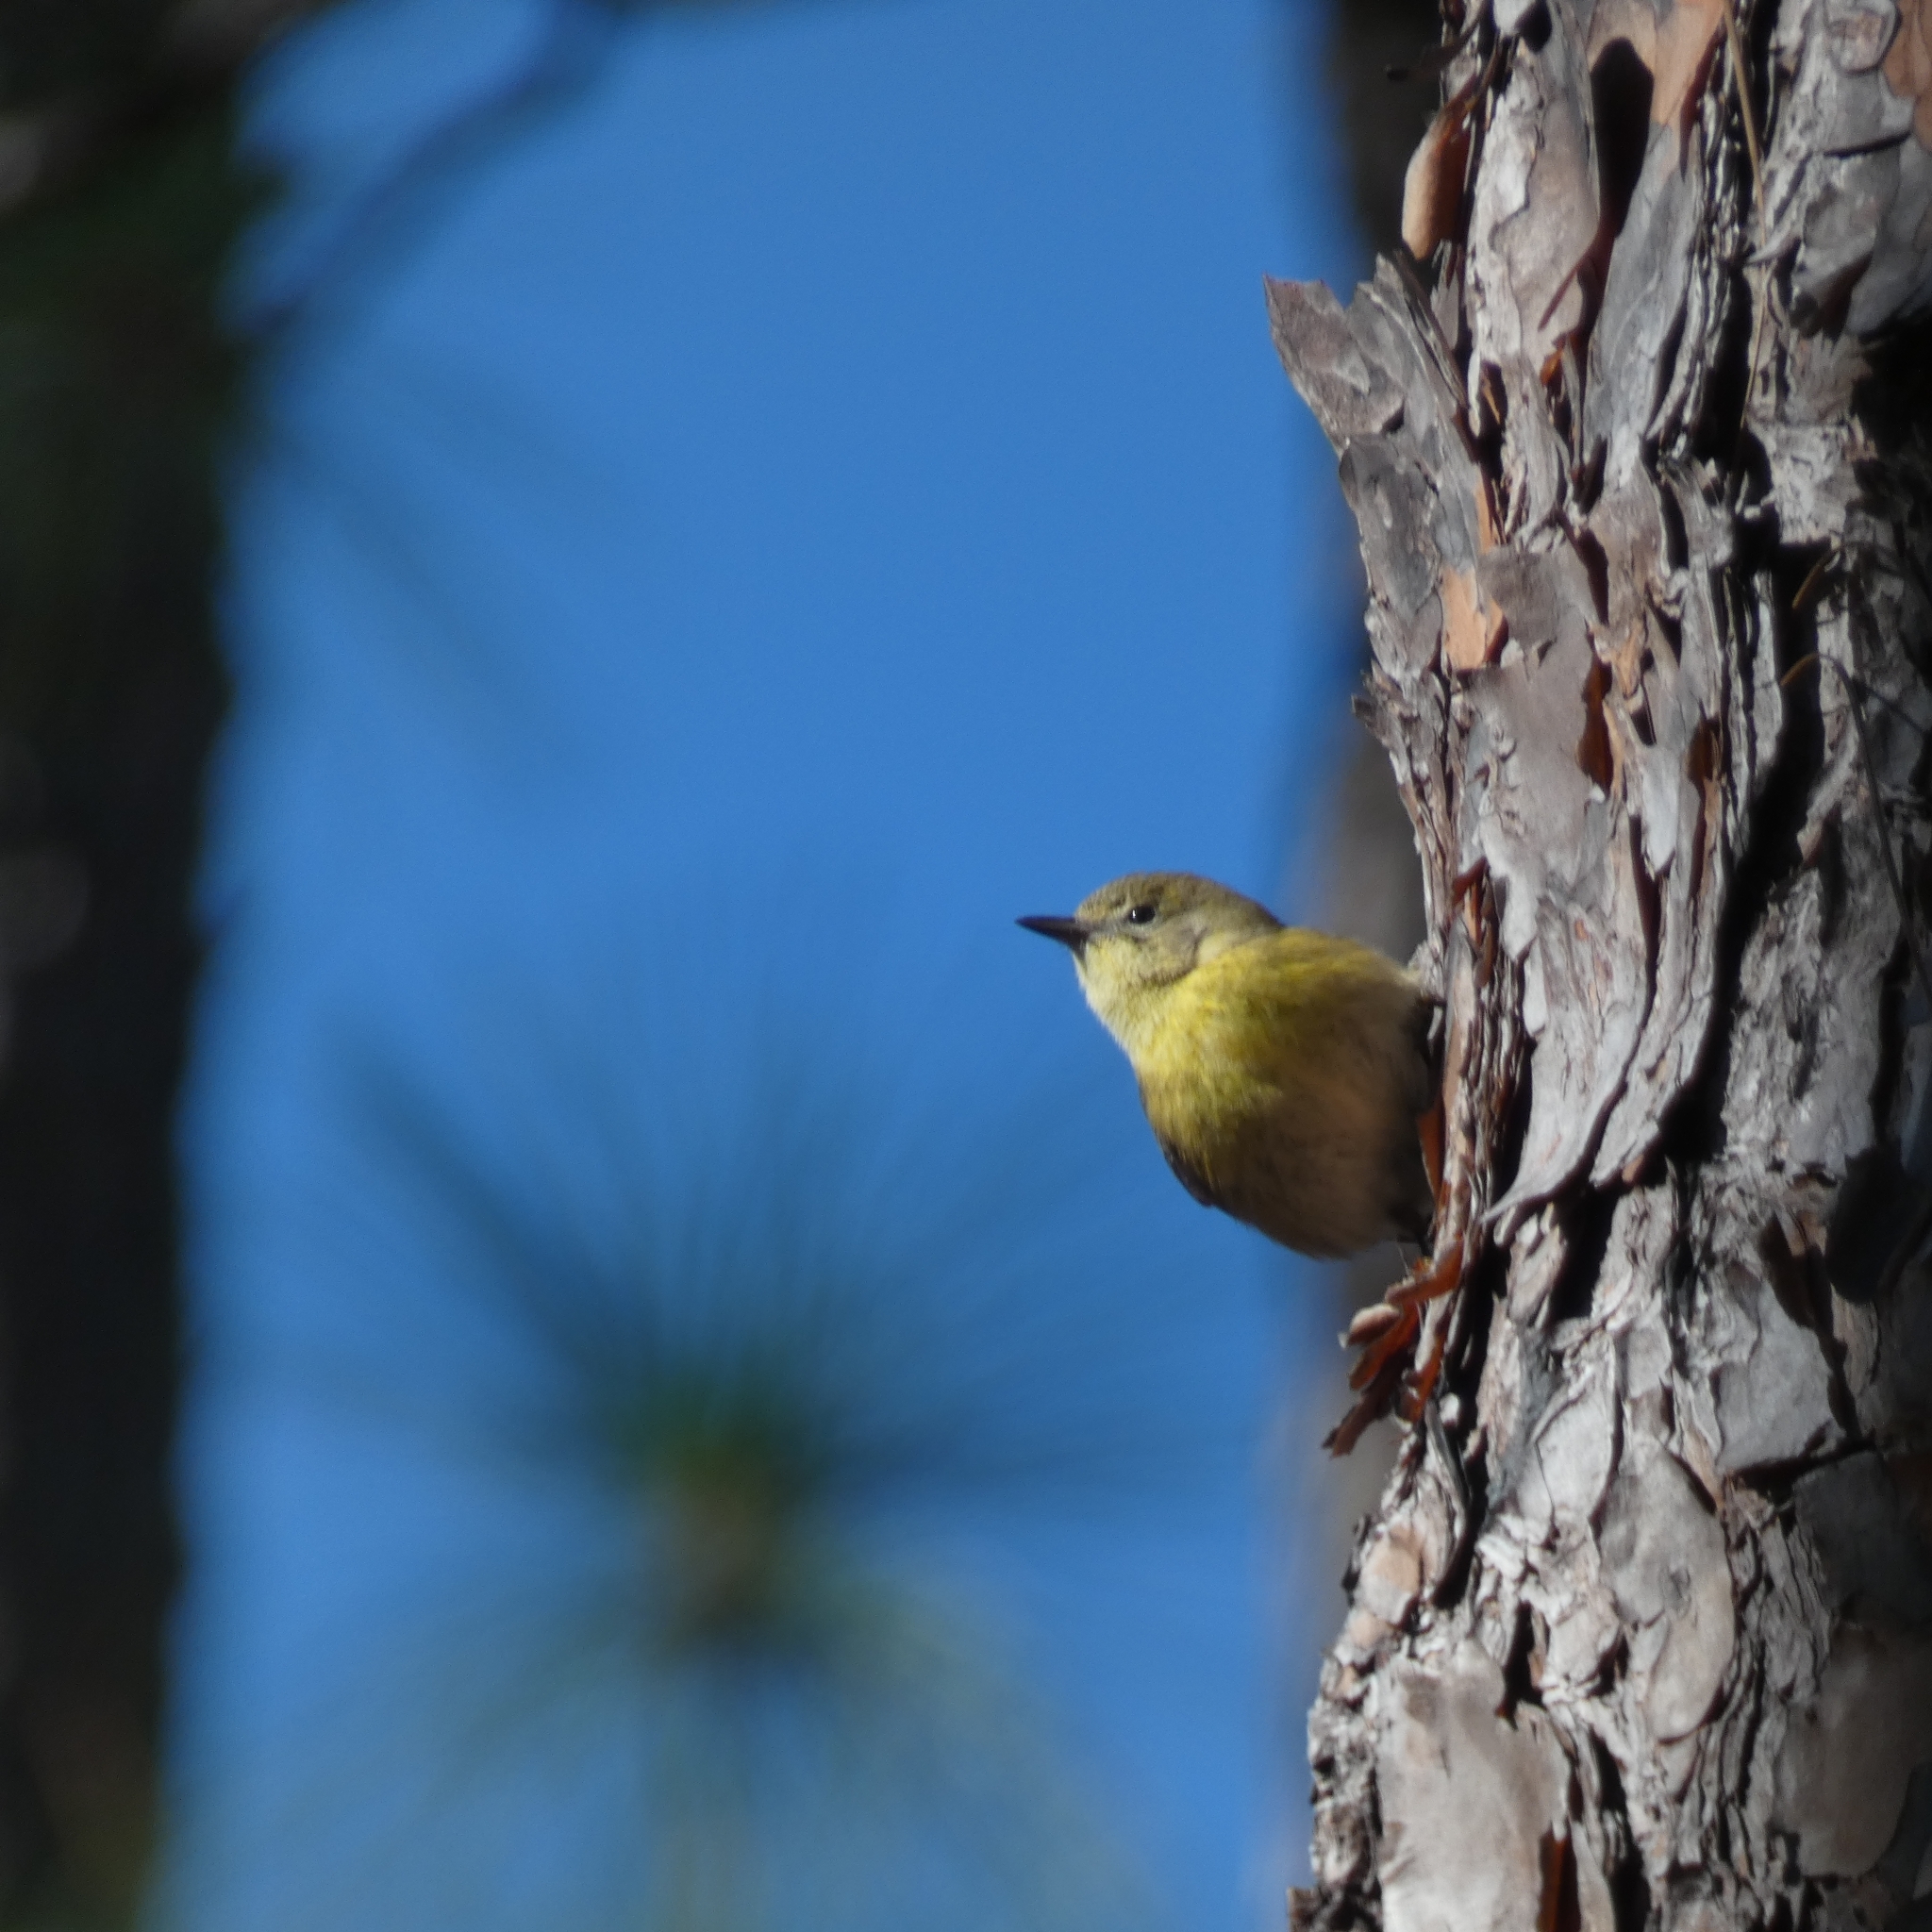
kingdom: Animalia
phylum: Chordata
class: Aves
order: Passeriformes
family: Parulidae
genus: Setophaga
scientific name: Setophaga pinus
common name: Pine warbler
